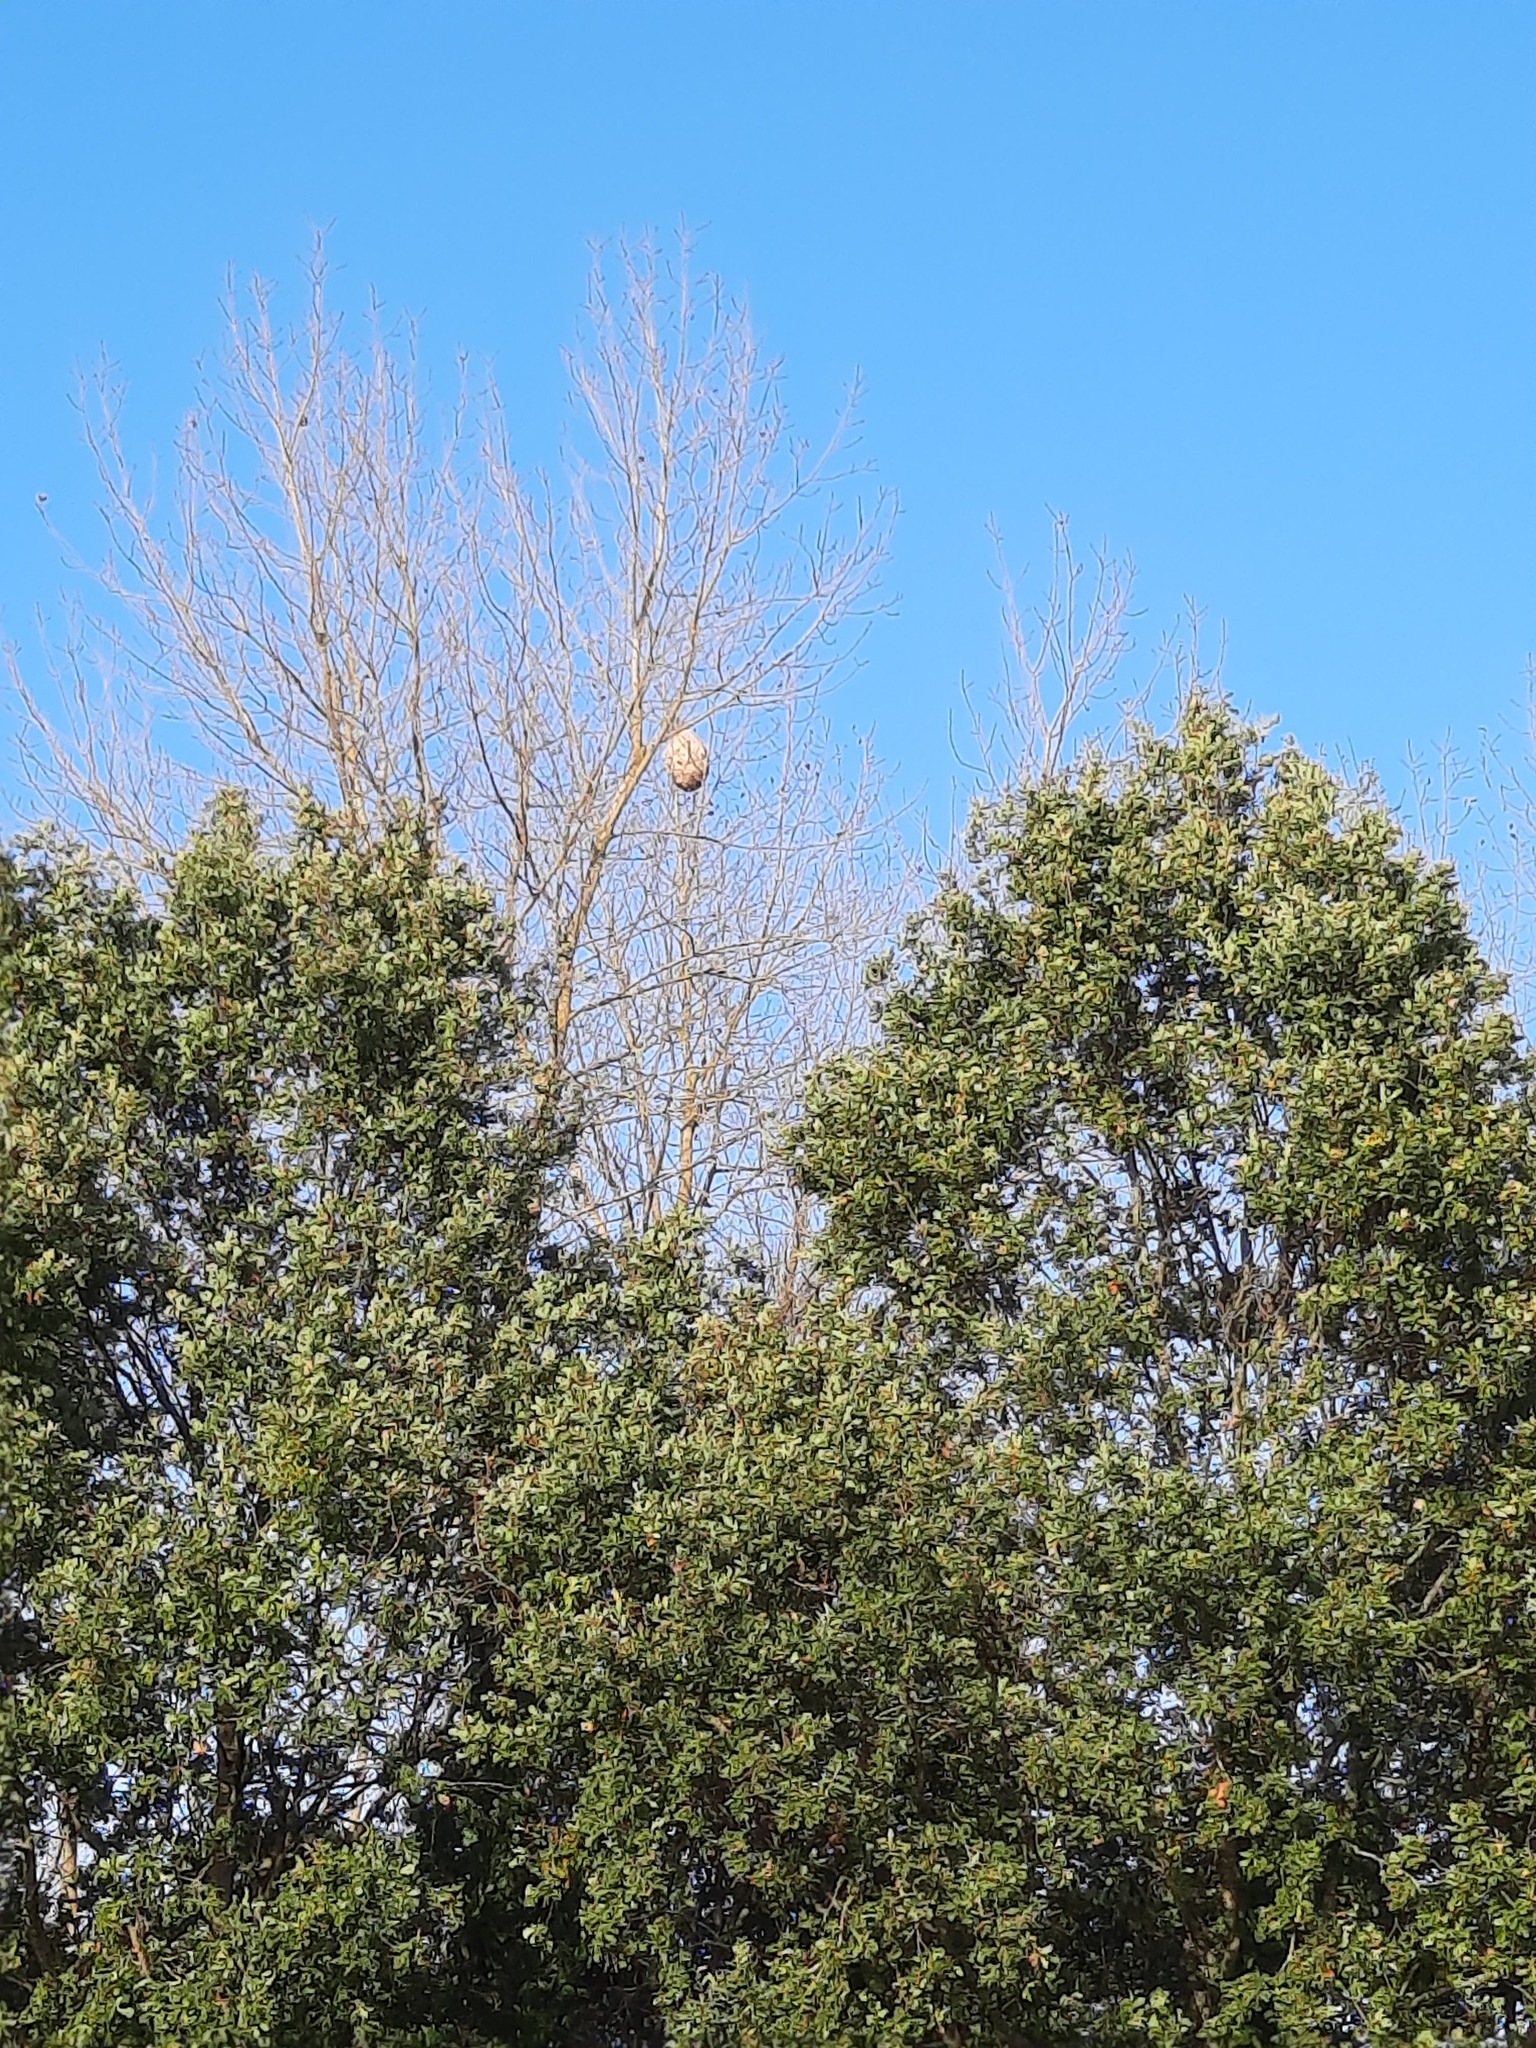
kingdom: Animalia
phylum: Arthropoda
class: Insecta
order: Hymenoptera
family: Vespidae
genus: Vespa
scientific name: Vespa velutina
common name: Asian hornet
